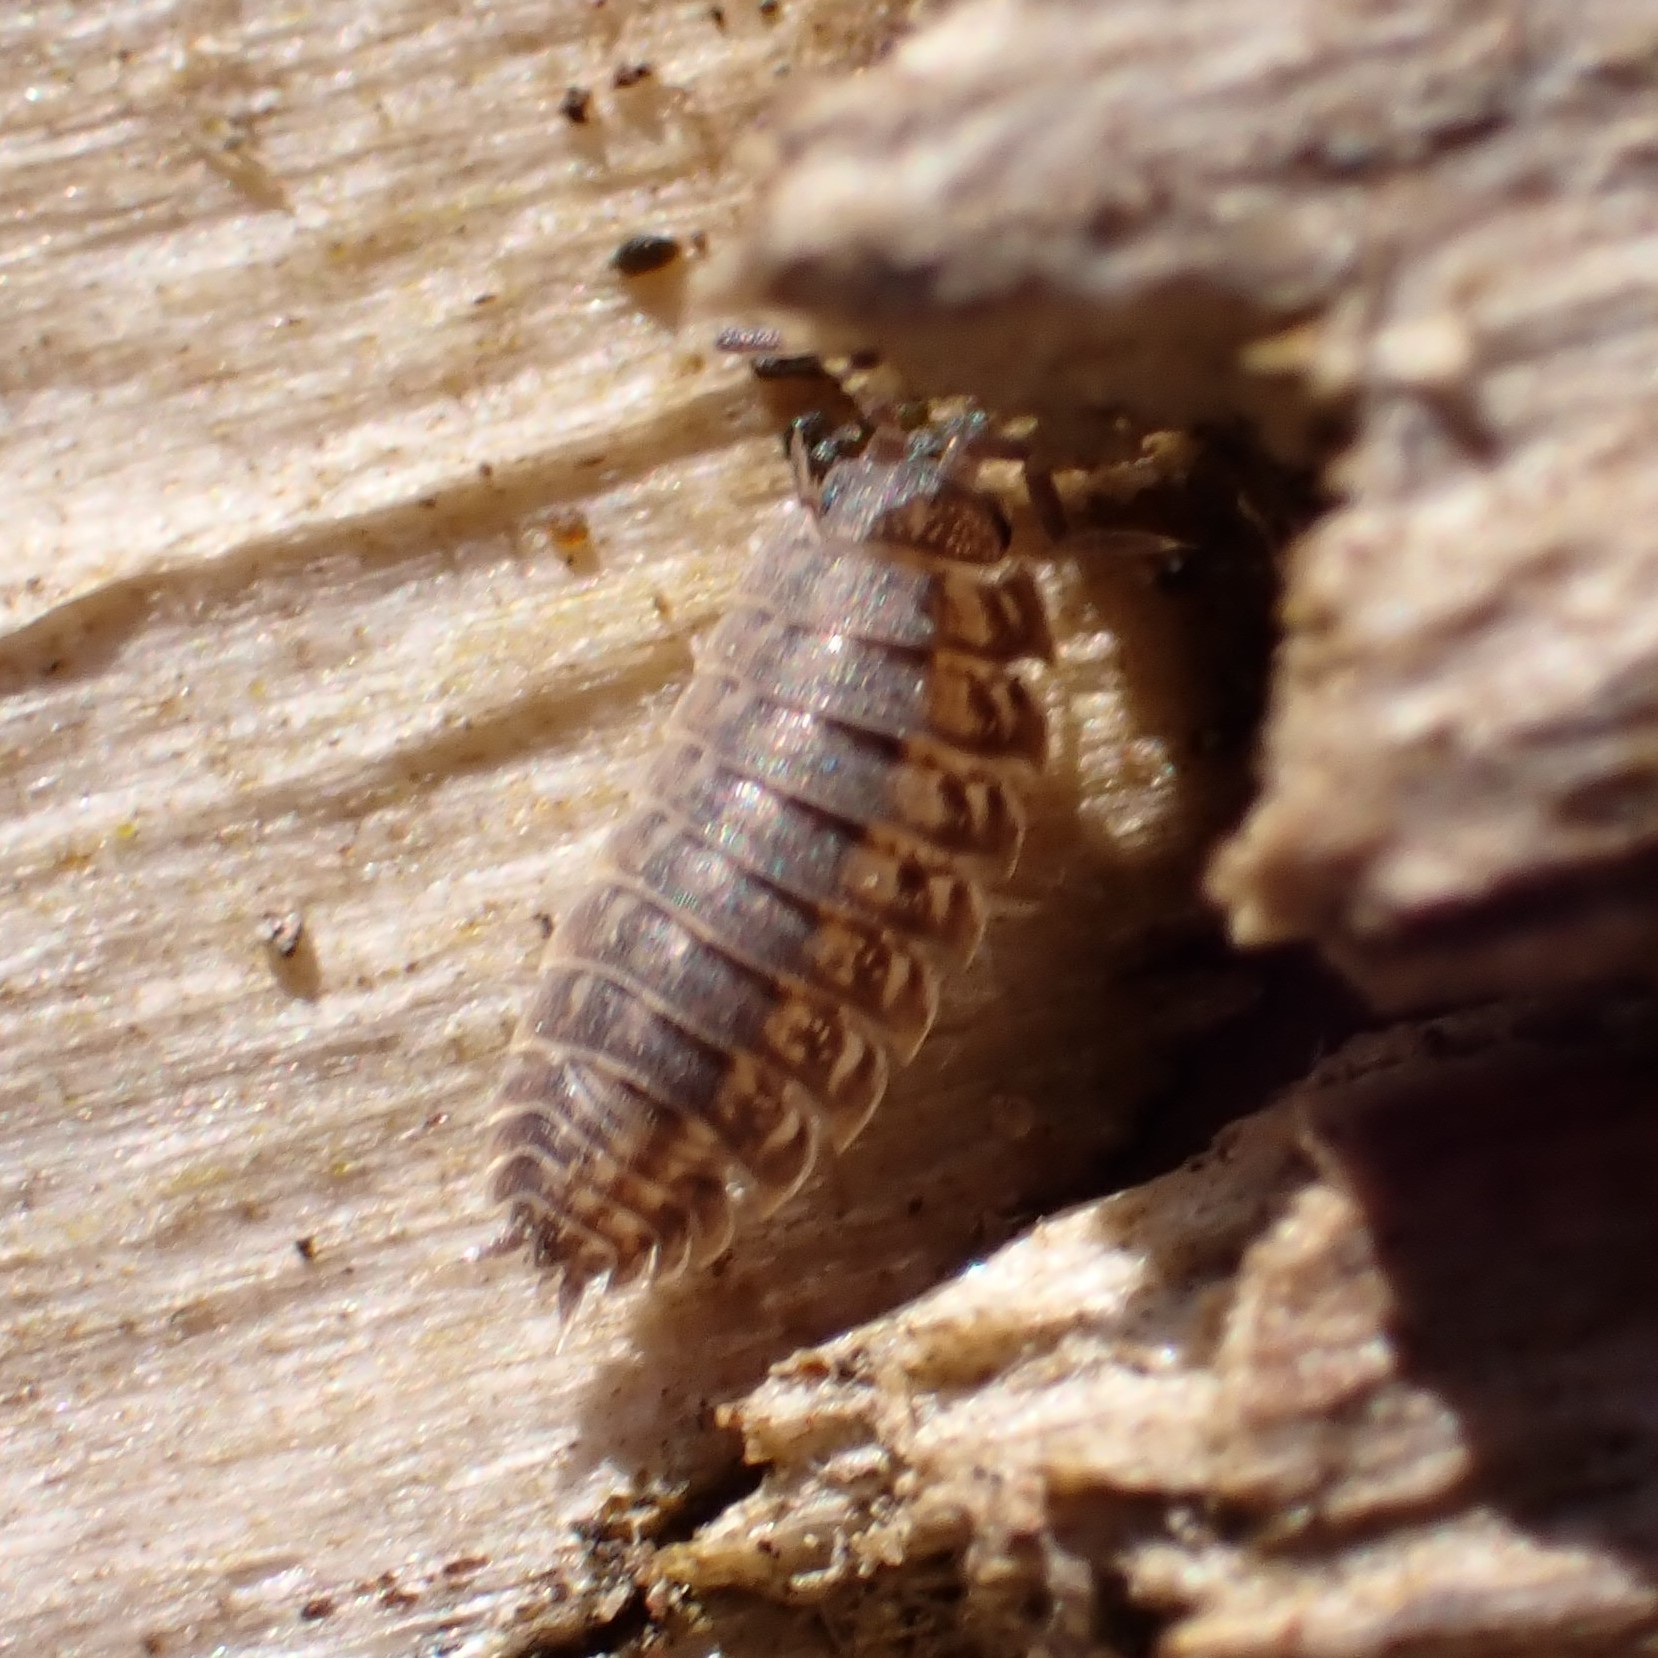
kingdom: Animalia
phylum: Arthropoda
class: Malacostraca
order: Isopoda
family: Trachelipodidae
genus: Trachelipus
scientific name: Trachelipus rathkii
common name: Isopod
